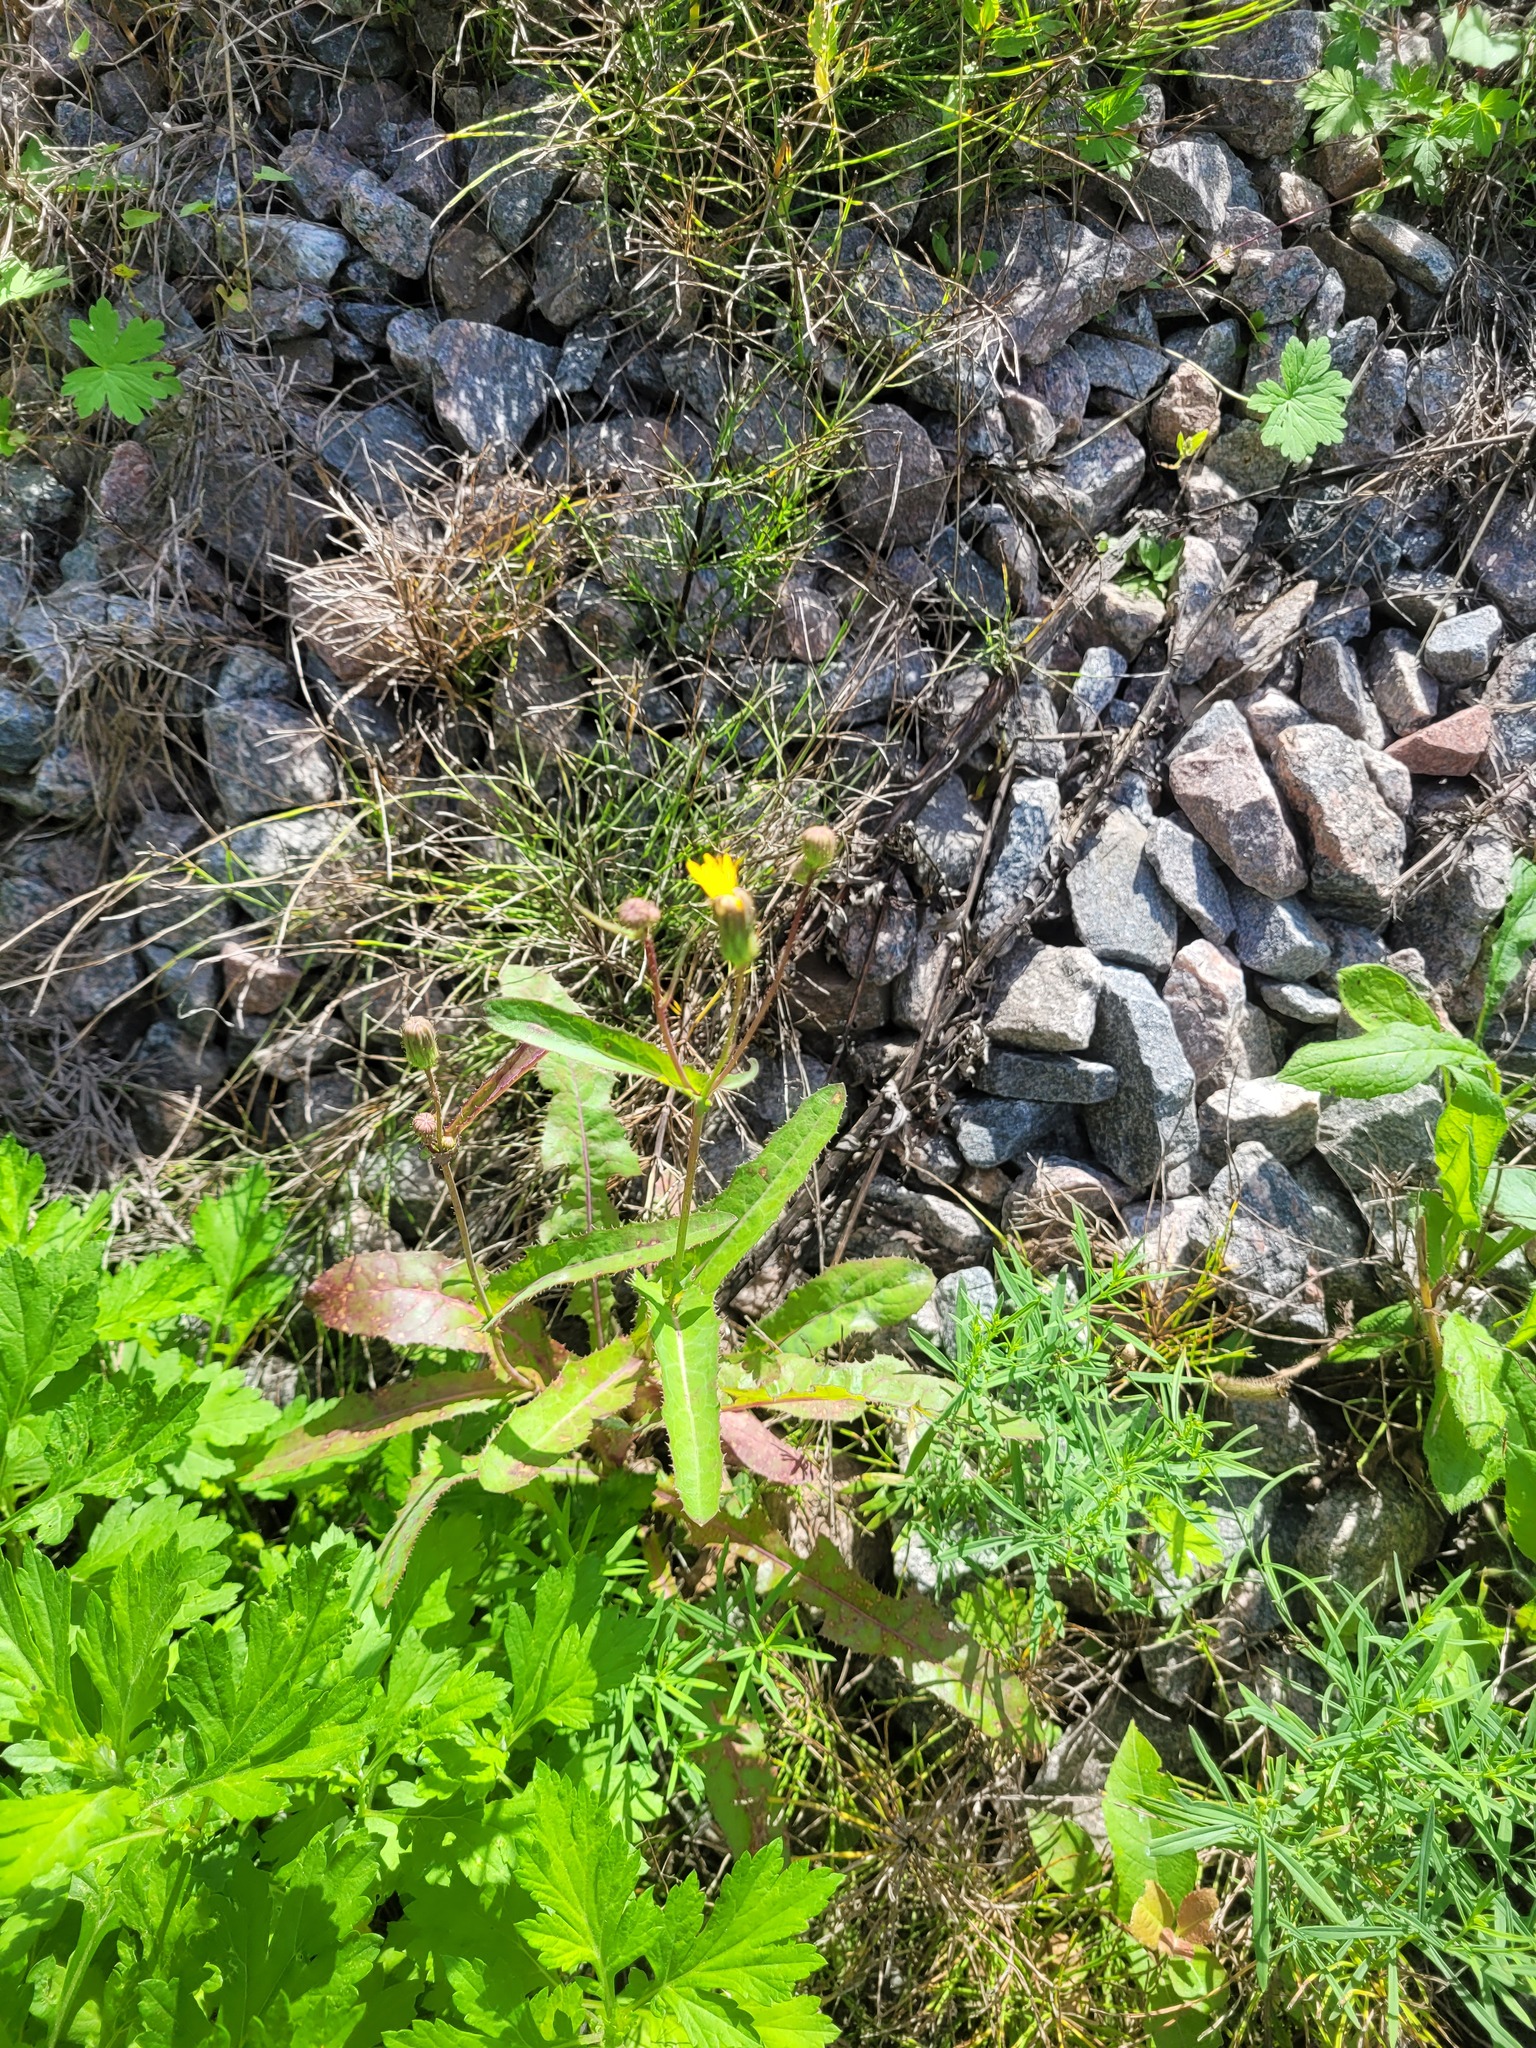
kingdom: Plantae
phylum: Tracheophyta
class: Magnoliopsida
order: Asterales
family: Asteraceae
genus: Sonchus
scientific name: Sonchus arvensis
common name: Perennial sow-thistle
